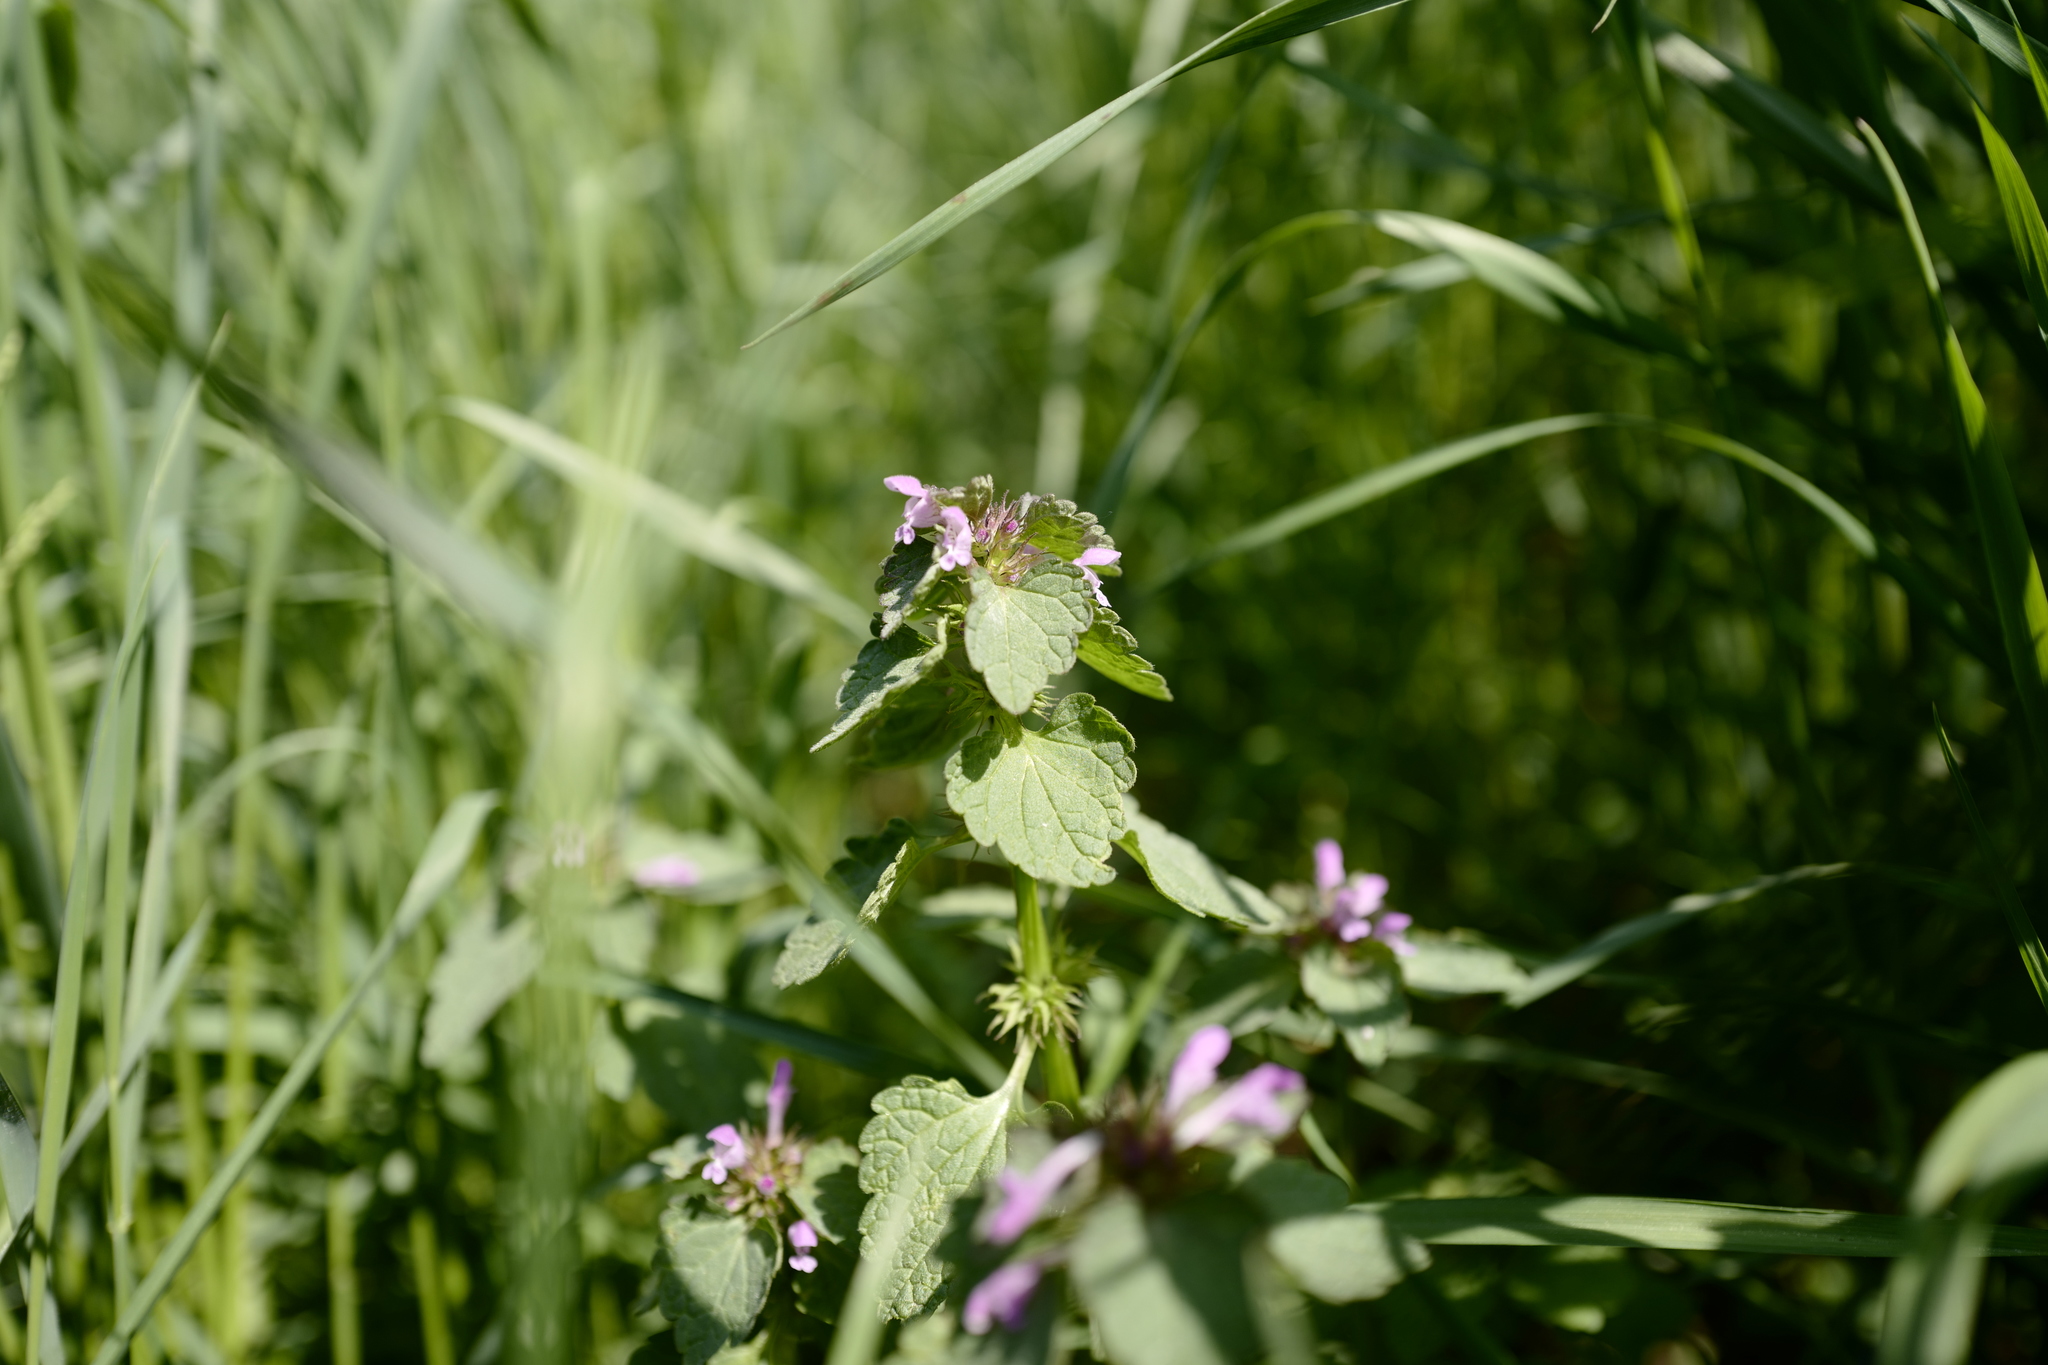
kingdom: Plantae
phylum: Tracheophyta
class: Magnoliopsida
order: Lamiales
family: Lamiaceae
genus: Lamium
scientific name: Lamium purpureum
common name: Red dead-nettle
